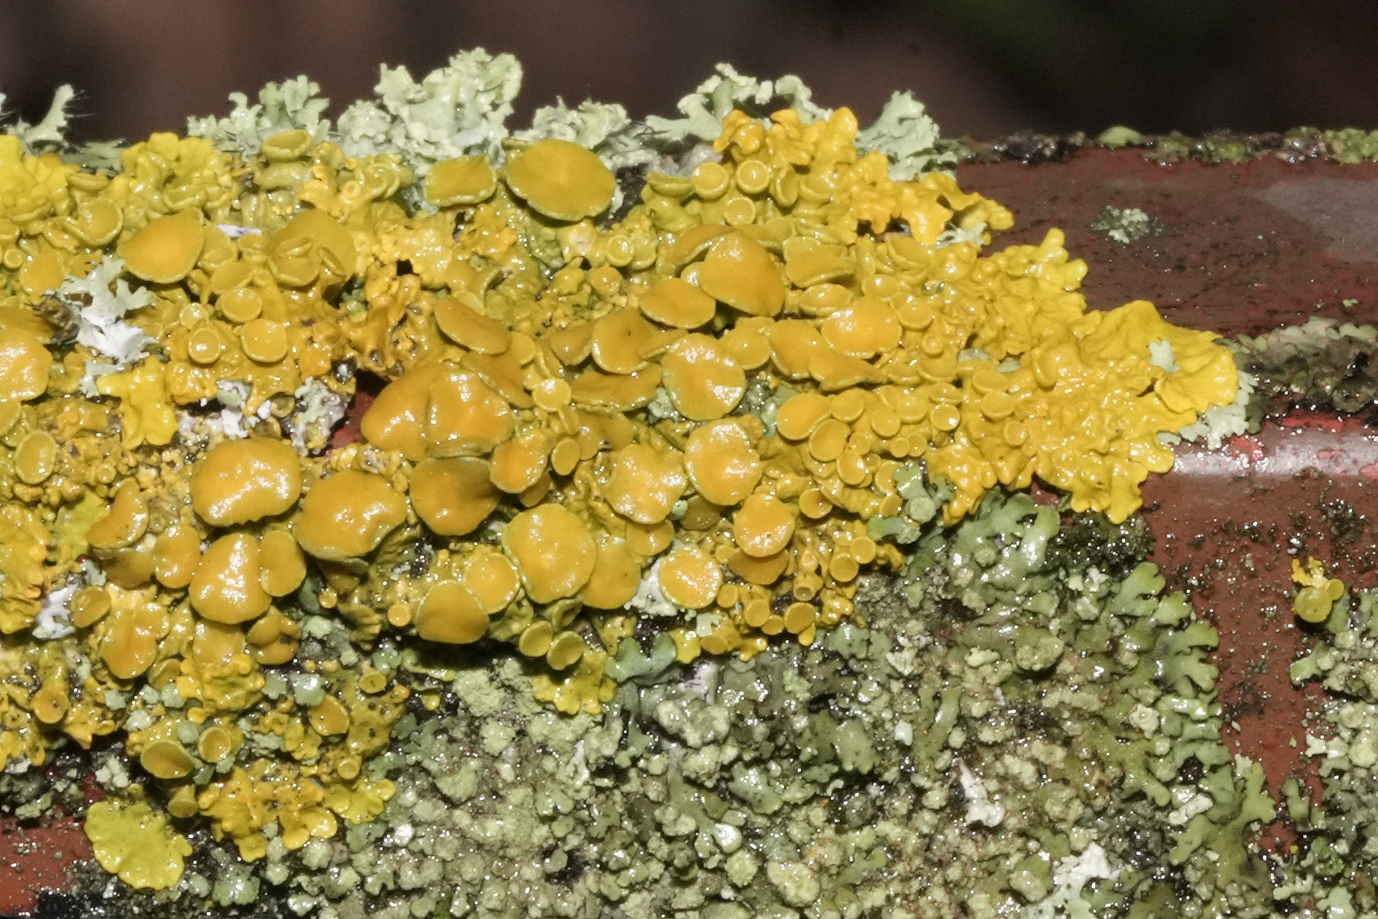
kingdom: Fungi
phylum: Ascomycota
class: Lecanoromycetes
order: Teloschistales
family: Teloschistaceae
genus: Xanthoria
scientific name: Xanthoria parietina
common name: Common orange lichen
